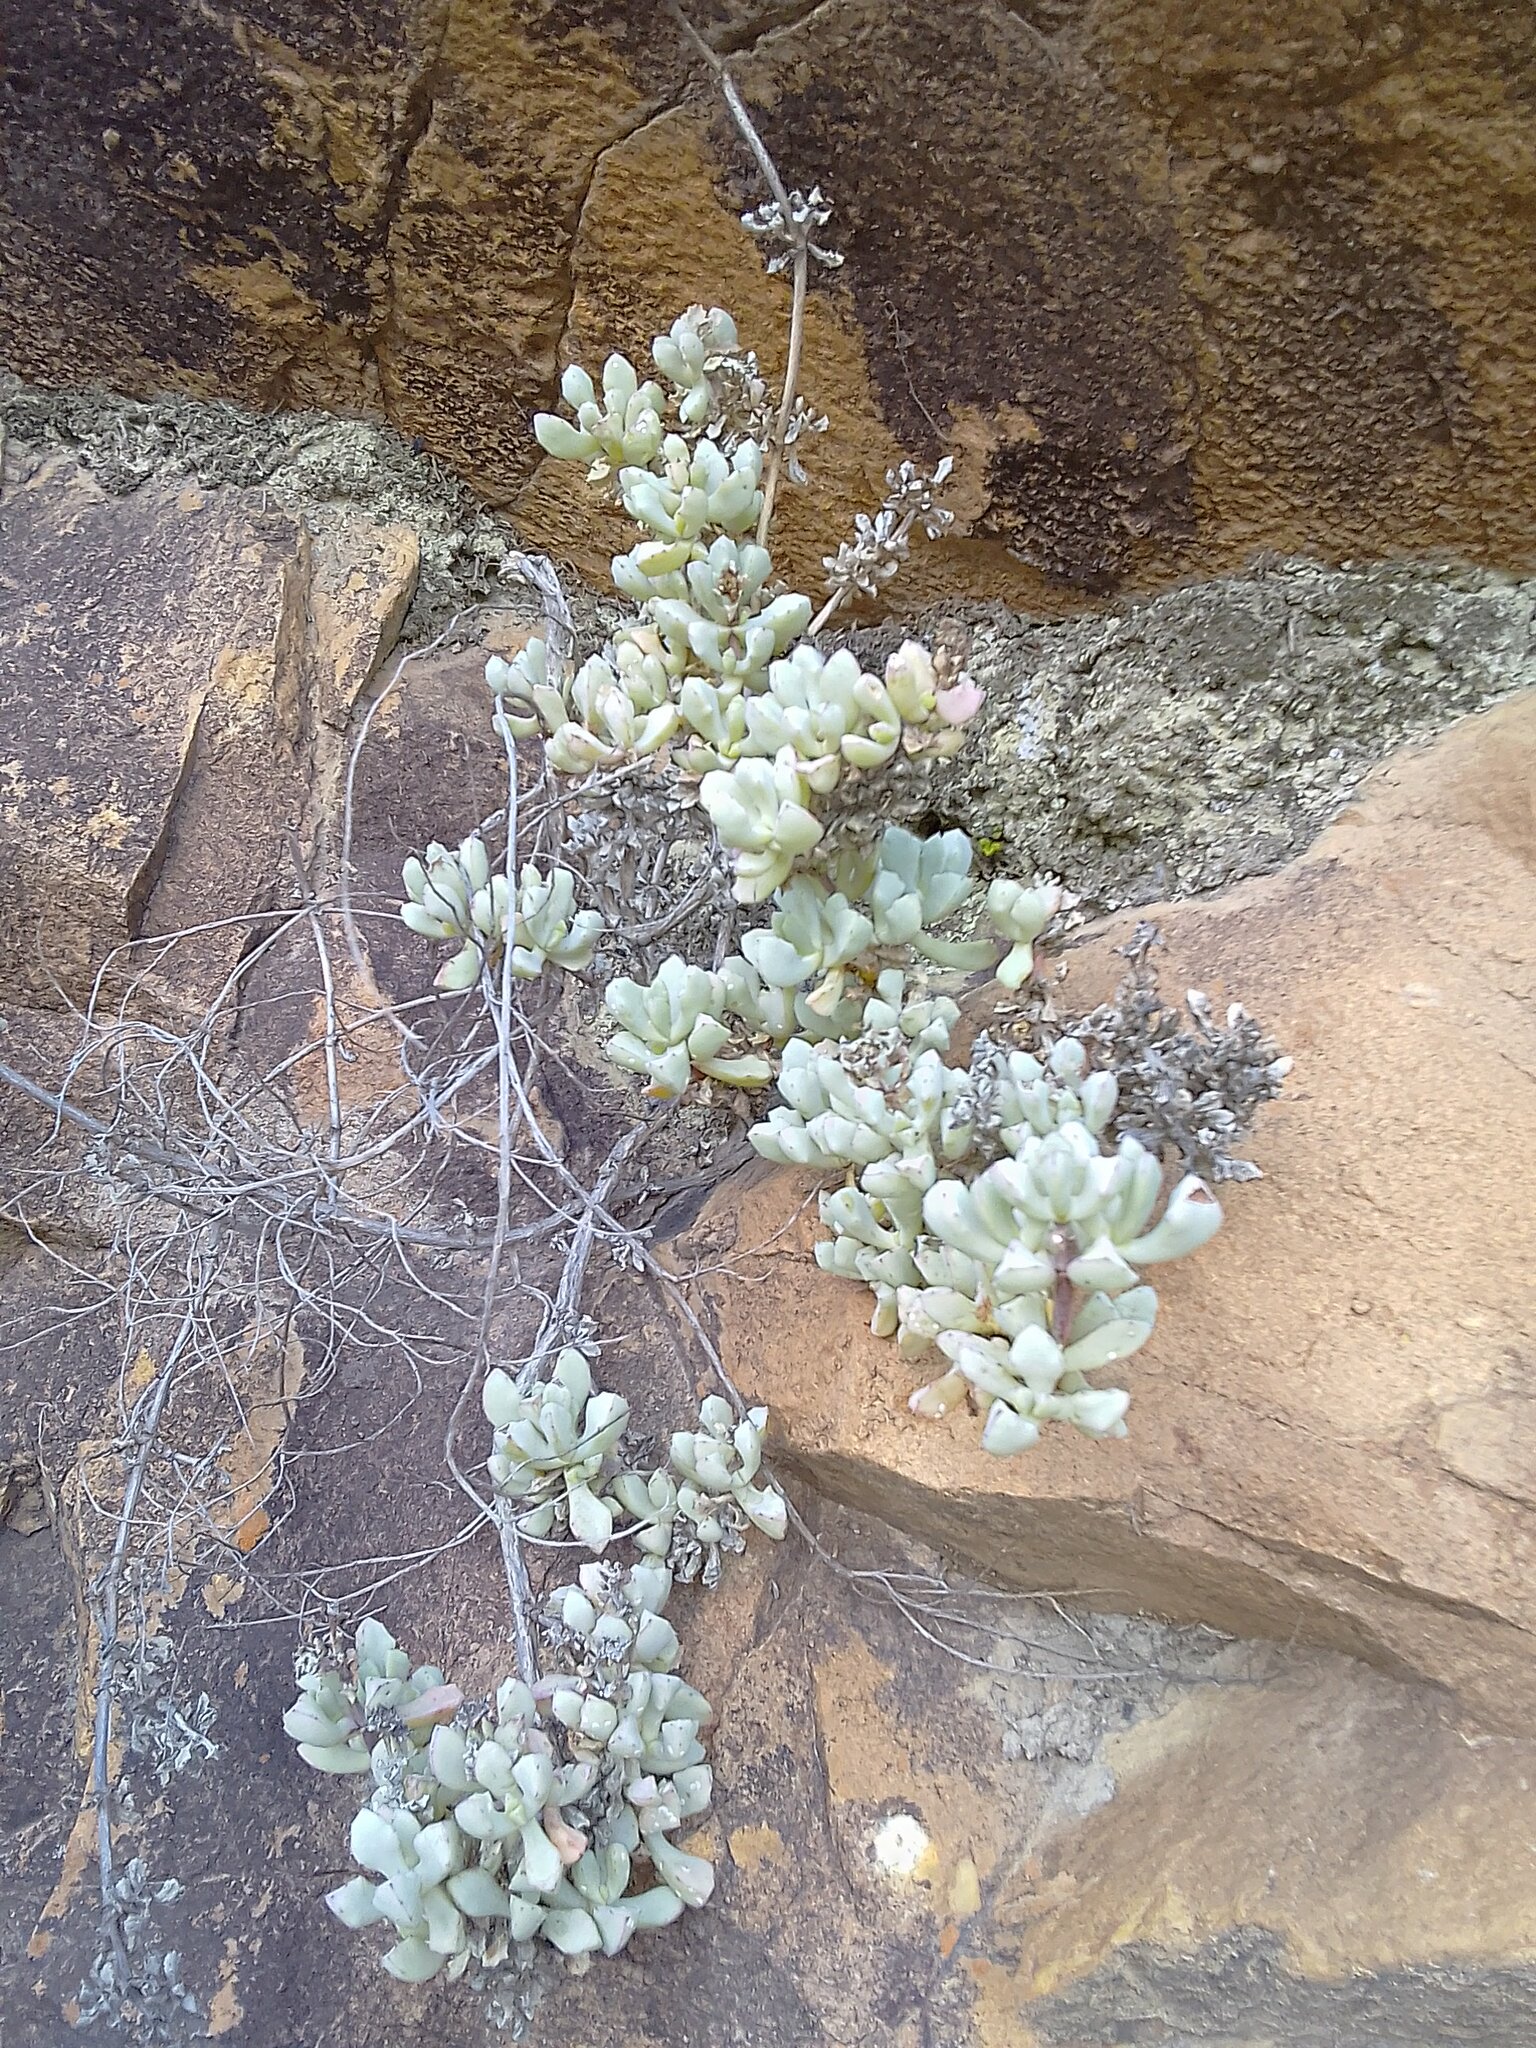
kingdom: Plantae
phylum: Tracheophyta
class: Magnoliopsida
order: Caryophyllales
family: Aizoaceae
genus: Oscularia
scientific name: Oscularia deltoides
